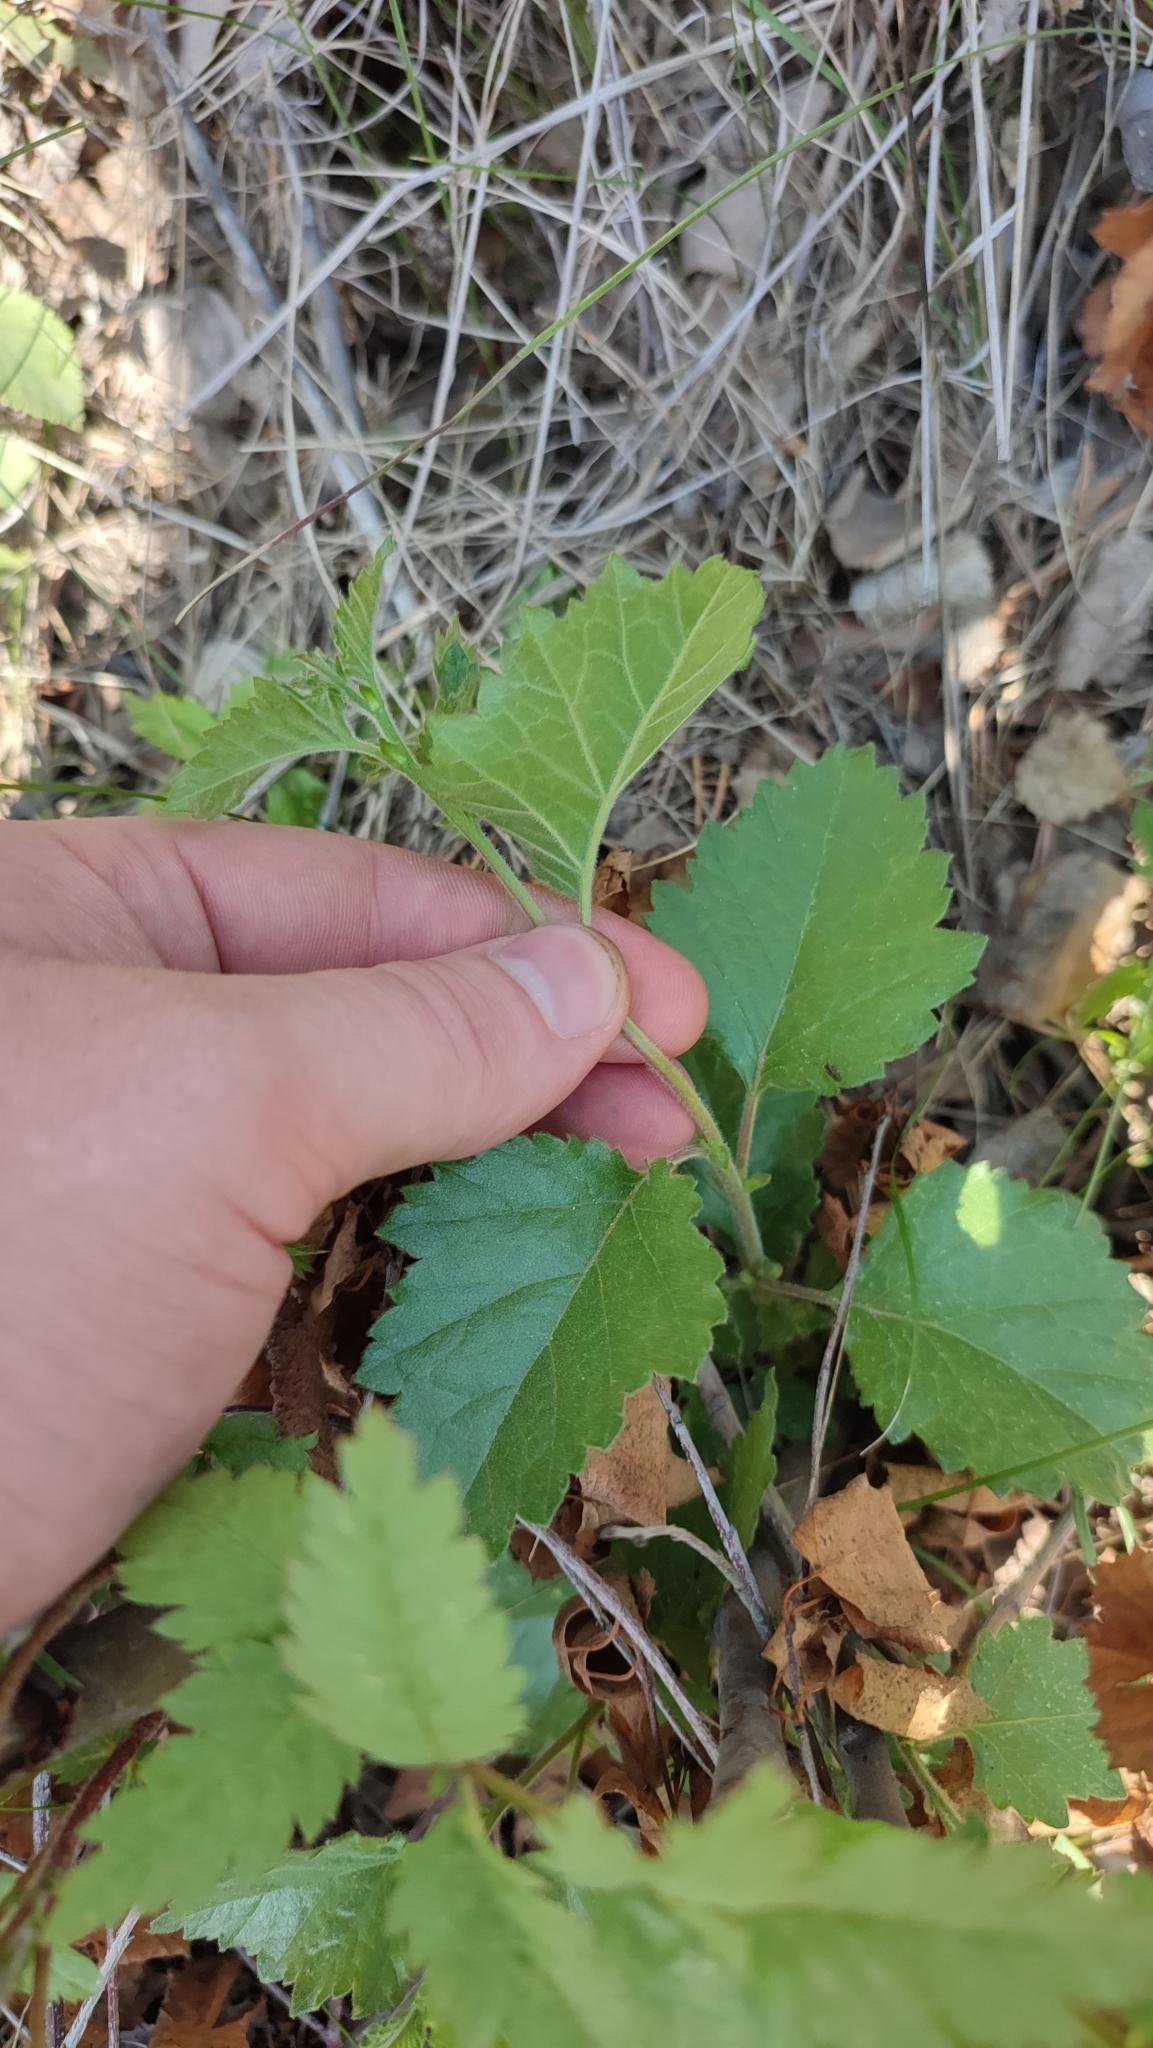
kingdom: Plantae
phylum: Tracheophyta
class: Magnoliopsida
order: Fagales
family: Betulaceae
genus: Betula
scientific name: Betula pubescens
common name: Downy birch
